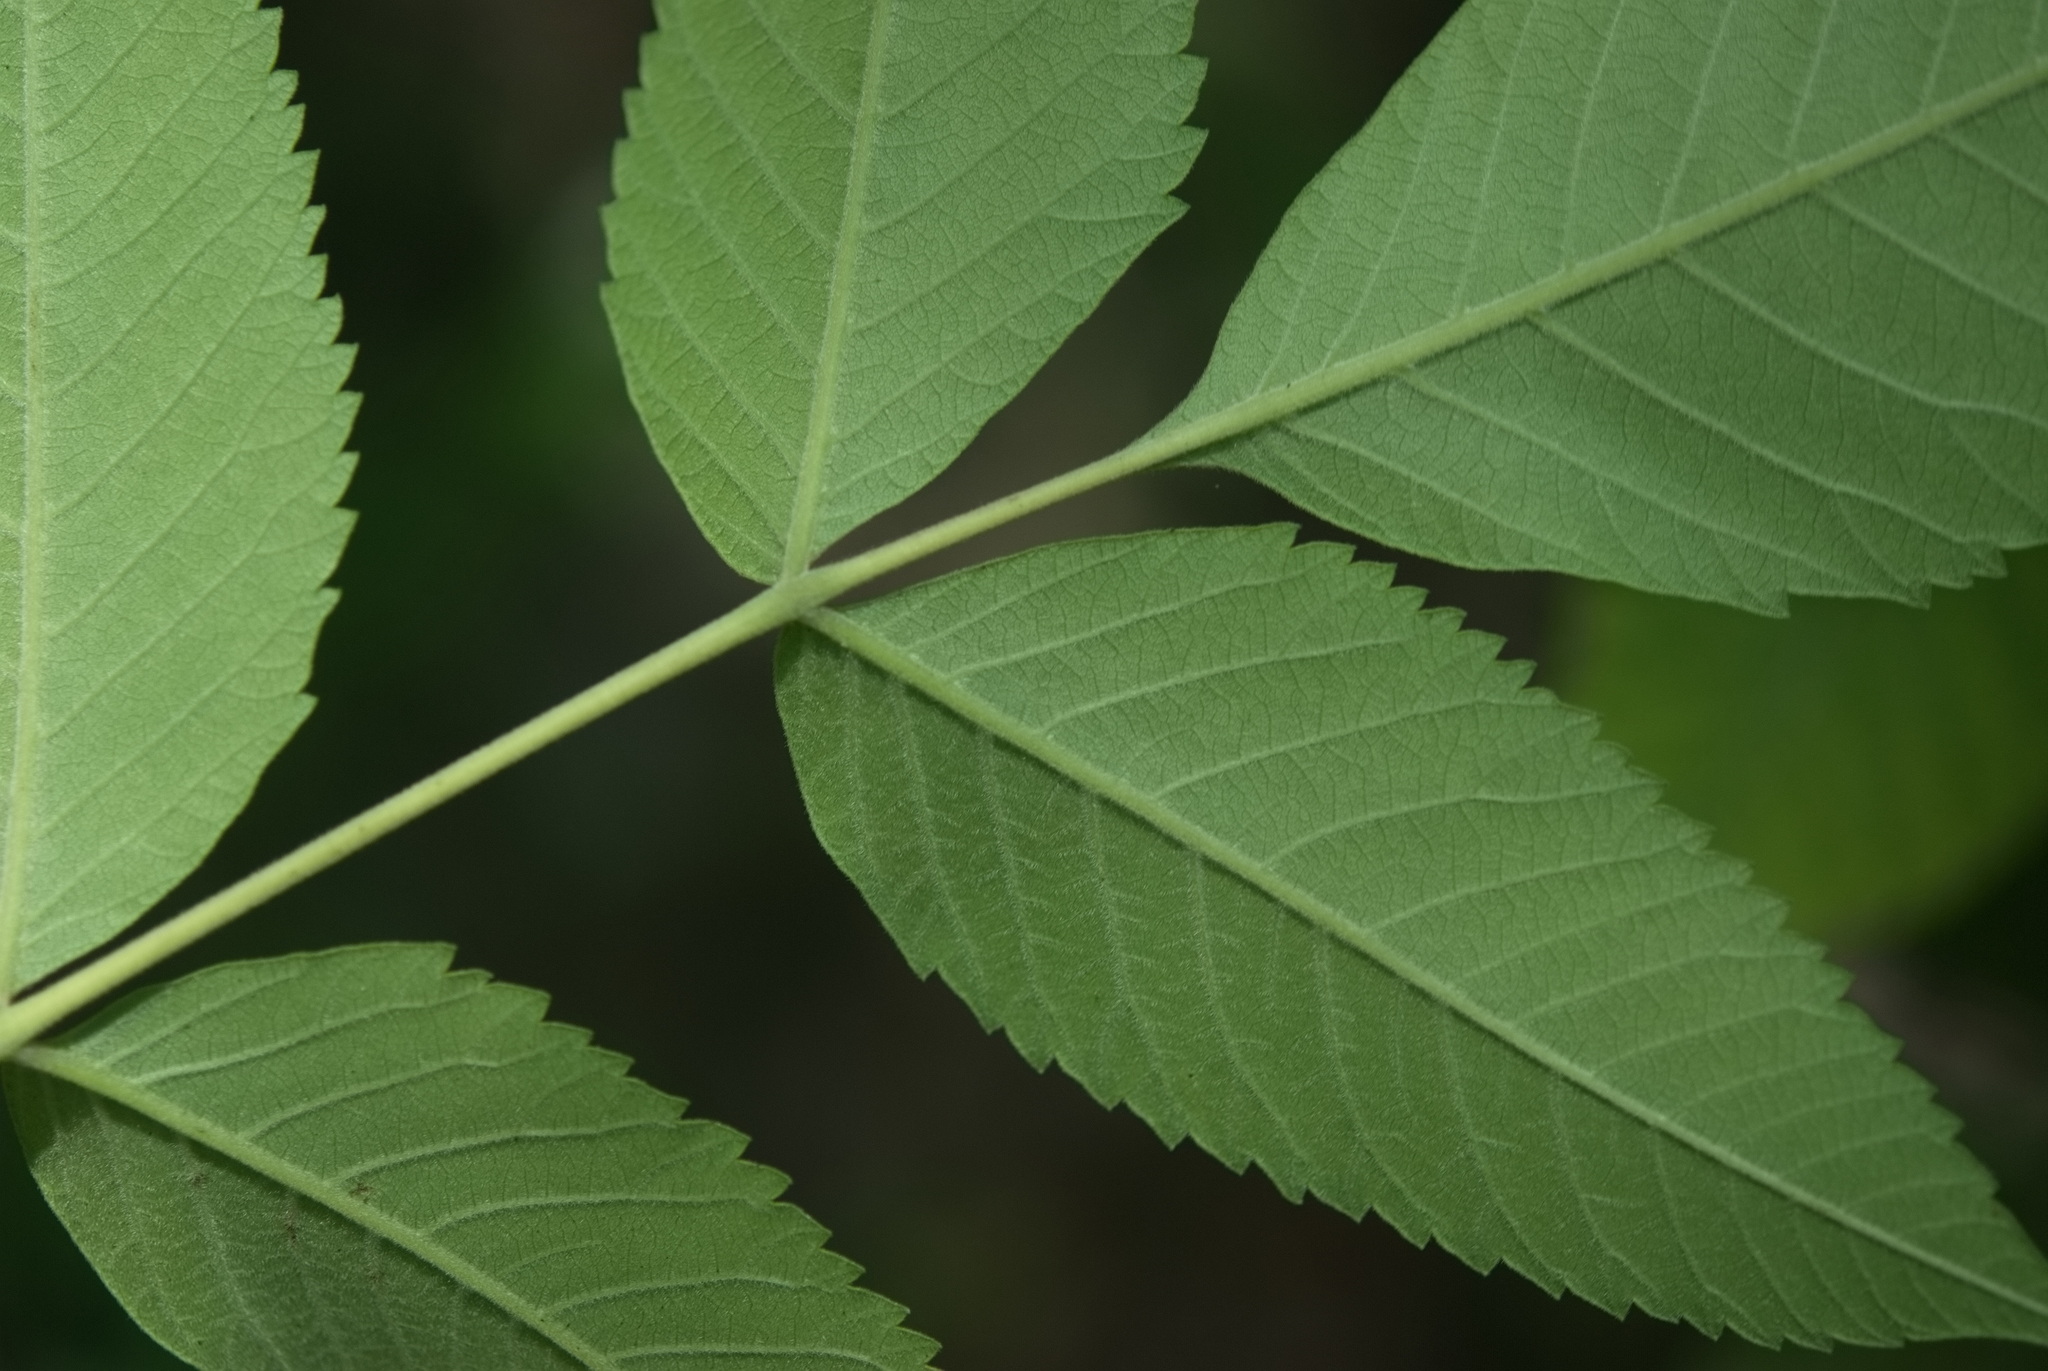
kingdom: Plantae
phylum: Tracheophyta
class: Magnoliopsida
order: Sapindales
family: Anacardiaceae
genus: Rhus
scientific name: Rhus chinensis
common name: Chinese gall
